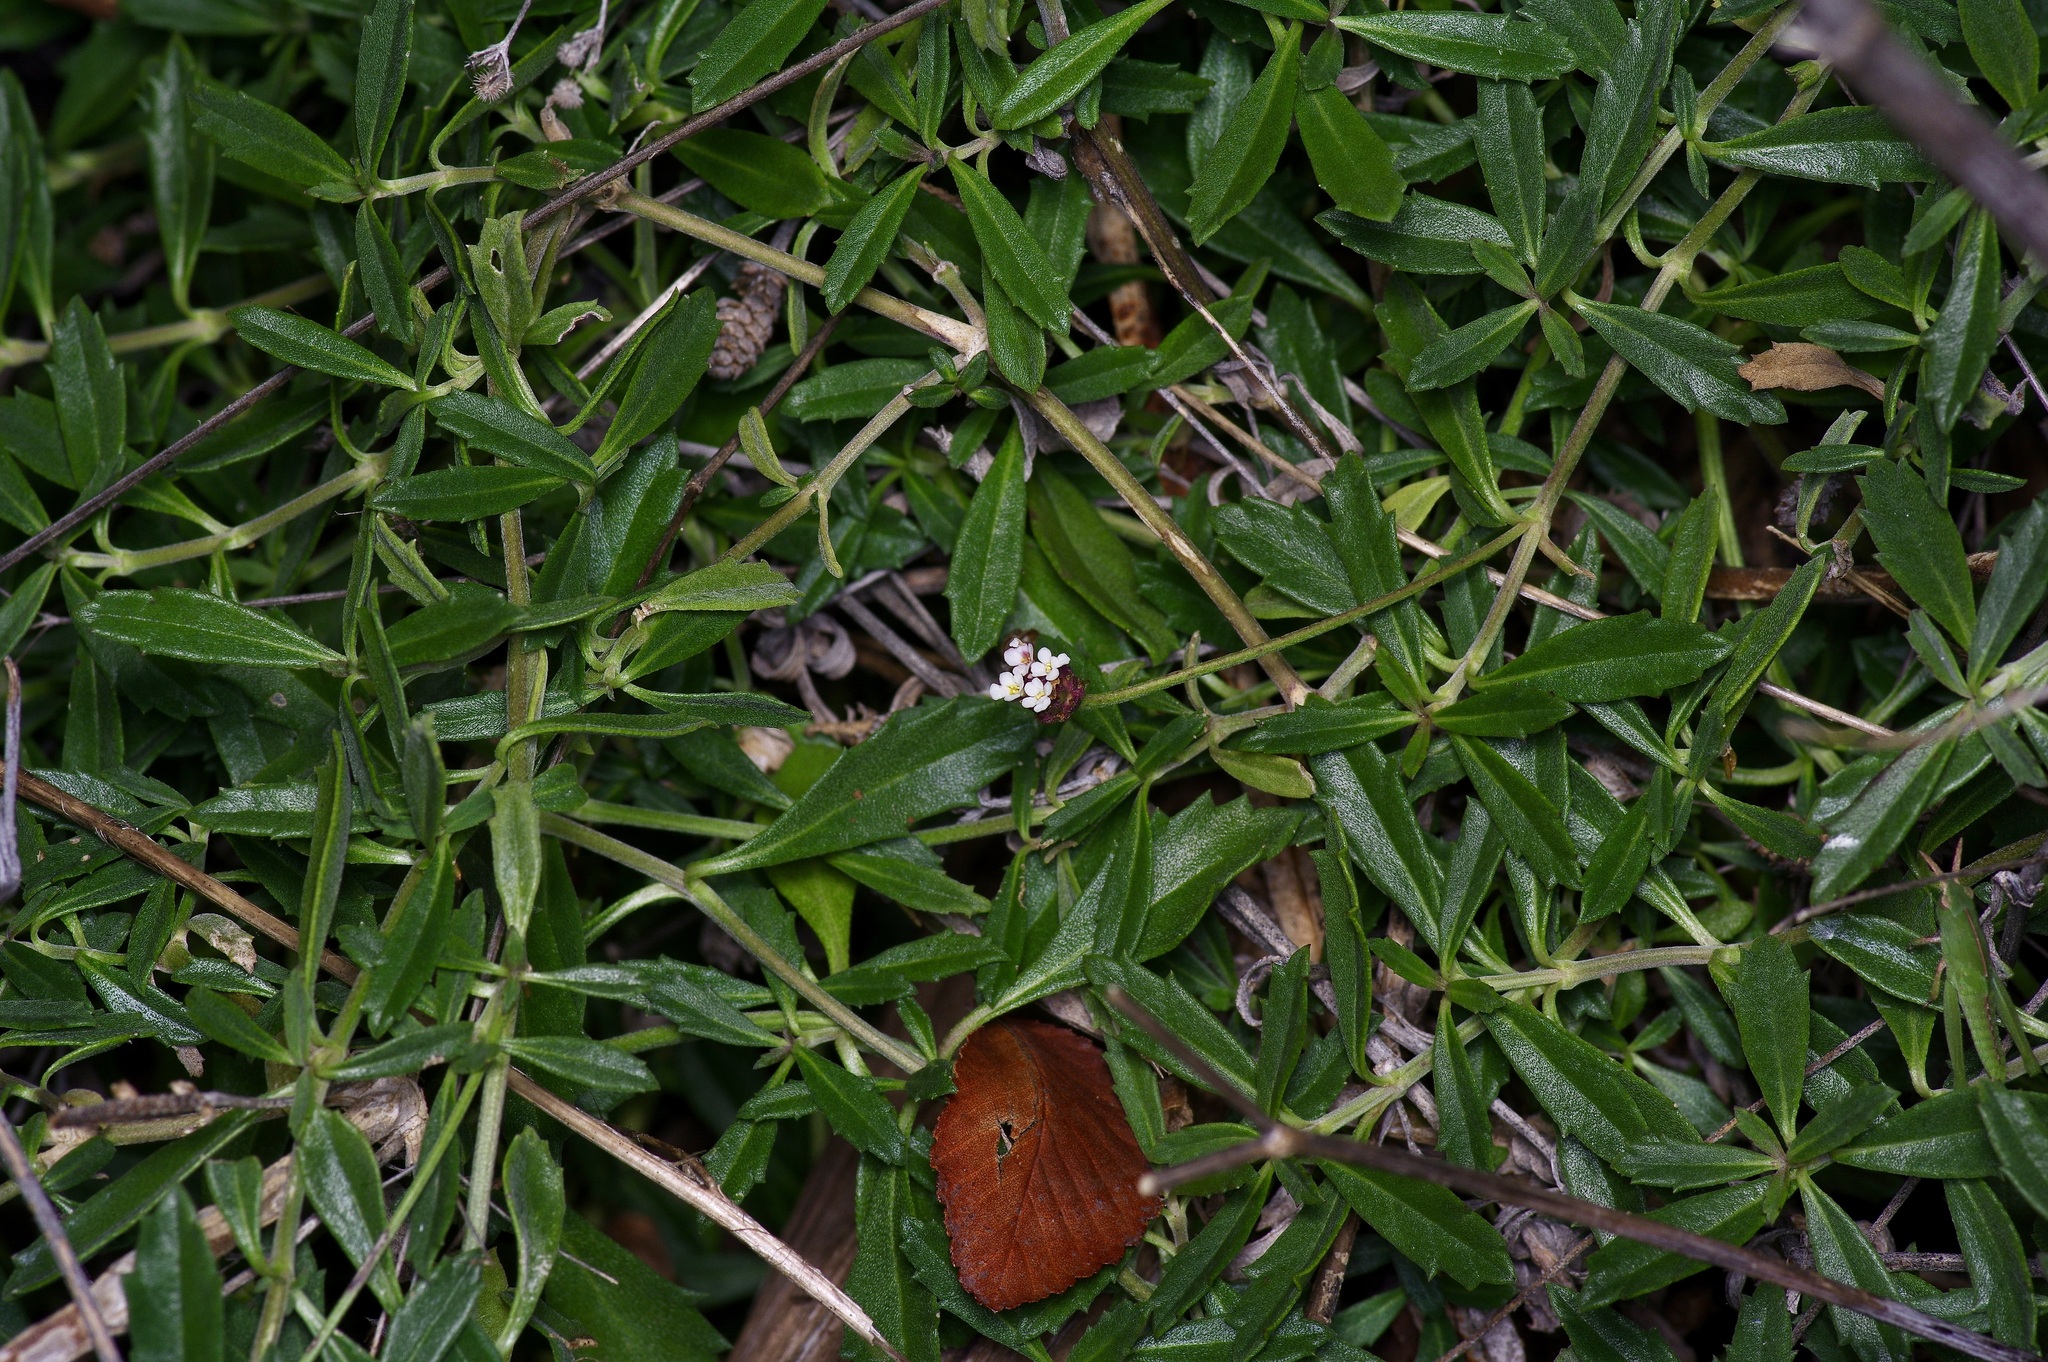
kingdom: Plantae
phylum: Tracheophyta
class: Magnoliopsida
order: Lamiales
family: Verbenaceae
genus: Phyla
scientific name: Phyla nodiflora
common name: Frogfruit
